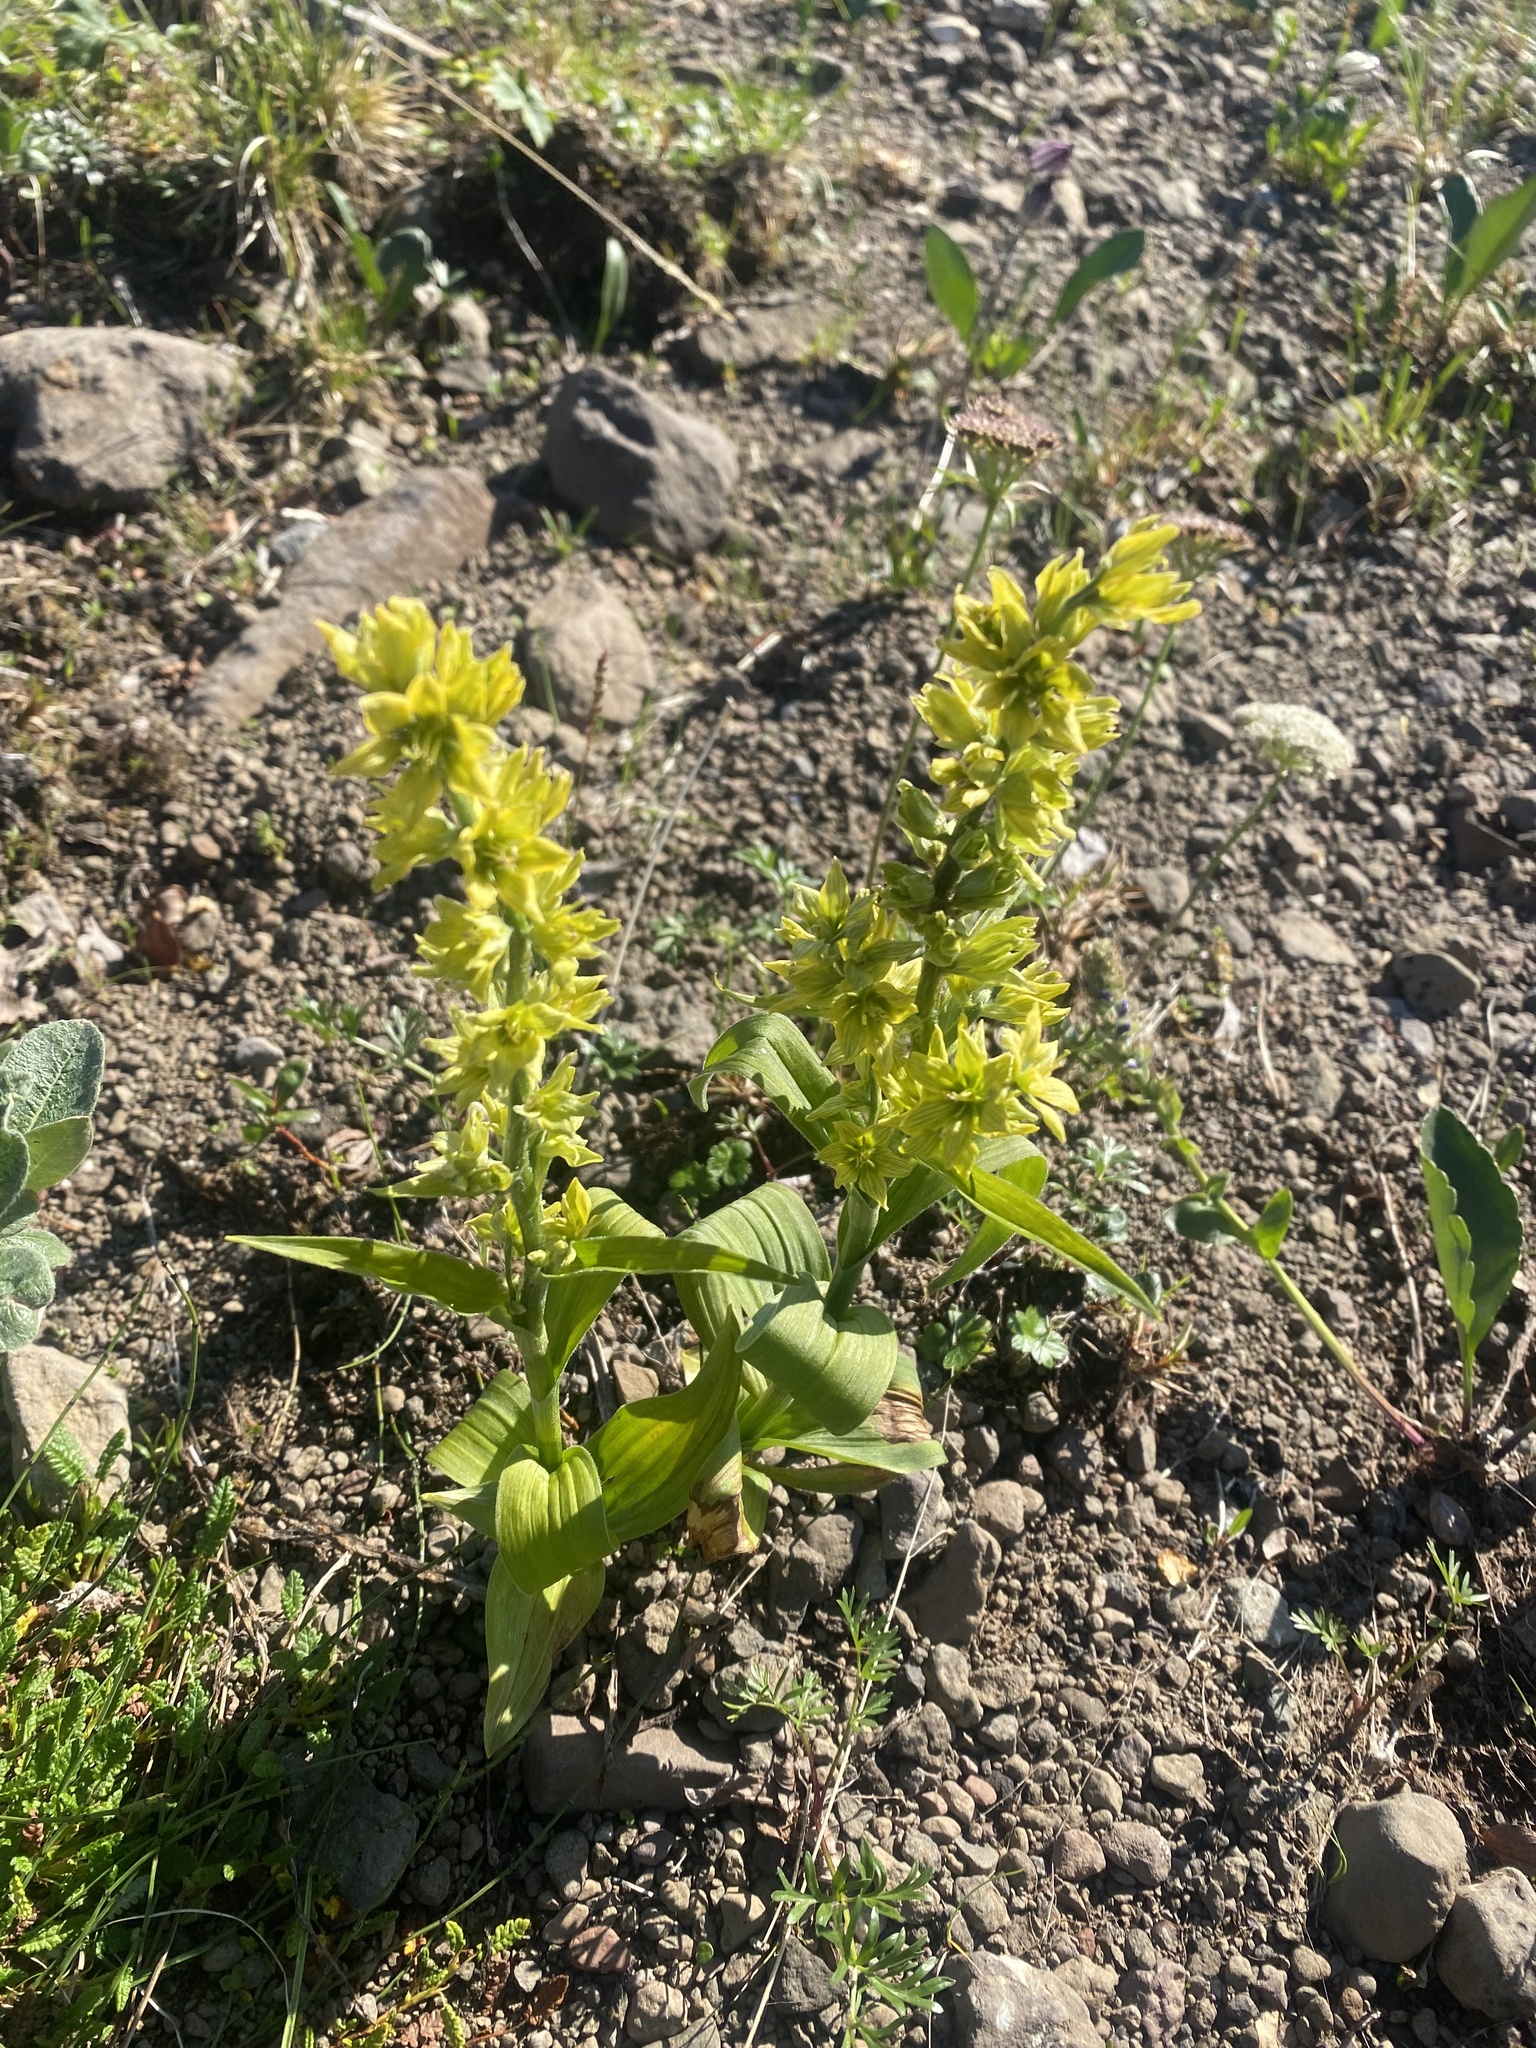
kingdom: Plantae
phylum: Tracheophyta
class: Liliopsida
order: Liliales
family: Melanthiaceae
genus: Veratrum
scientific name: Veratrum oxysepalum
